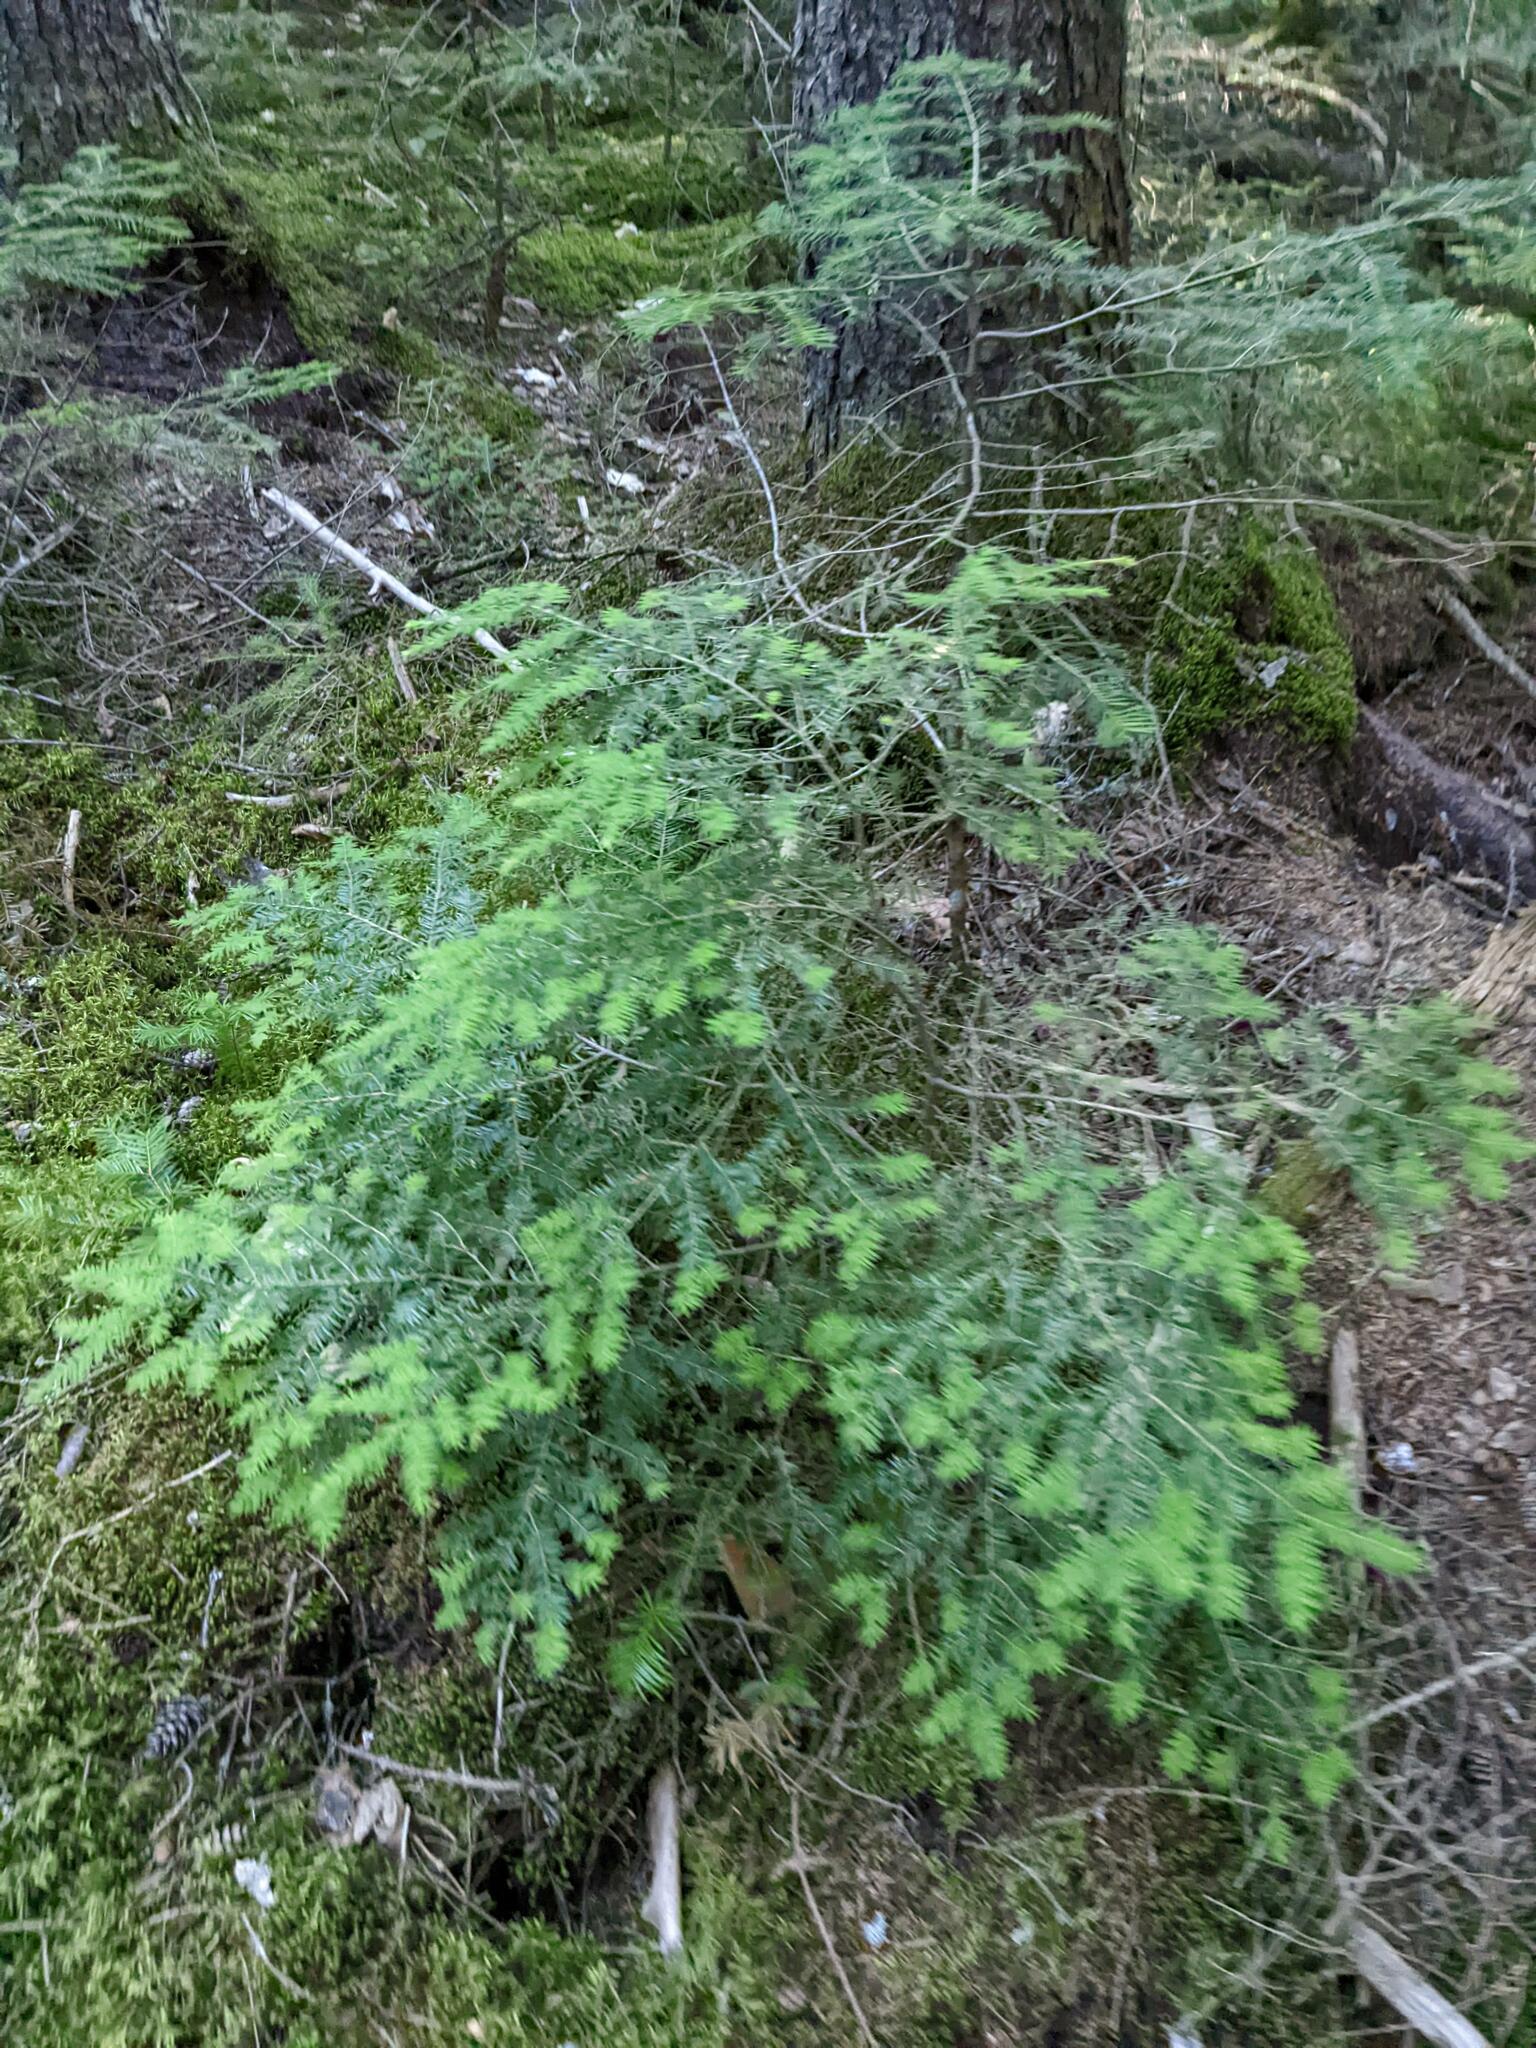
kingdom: Plantae
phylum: Tracheophyta
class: Pinopsida
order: Pinales
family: Pinaceae
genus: Tsuga
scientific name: Tsuga canadensis
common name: Eastern hemlock
